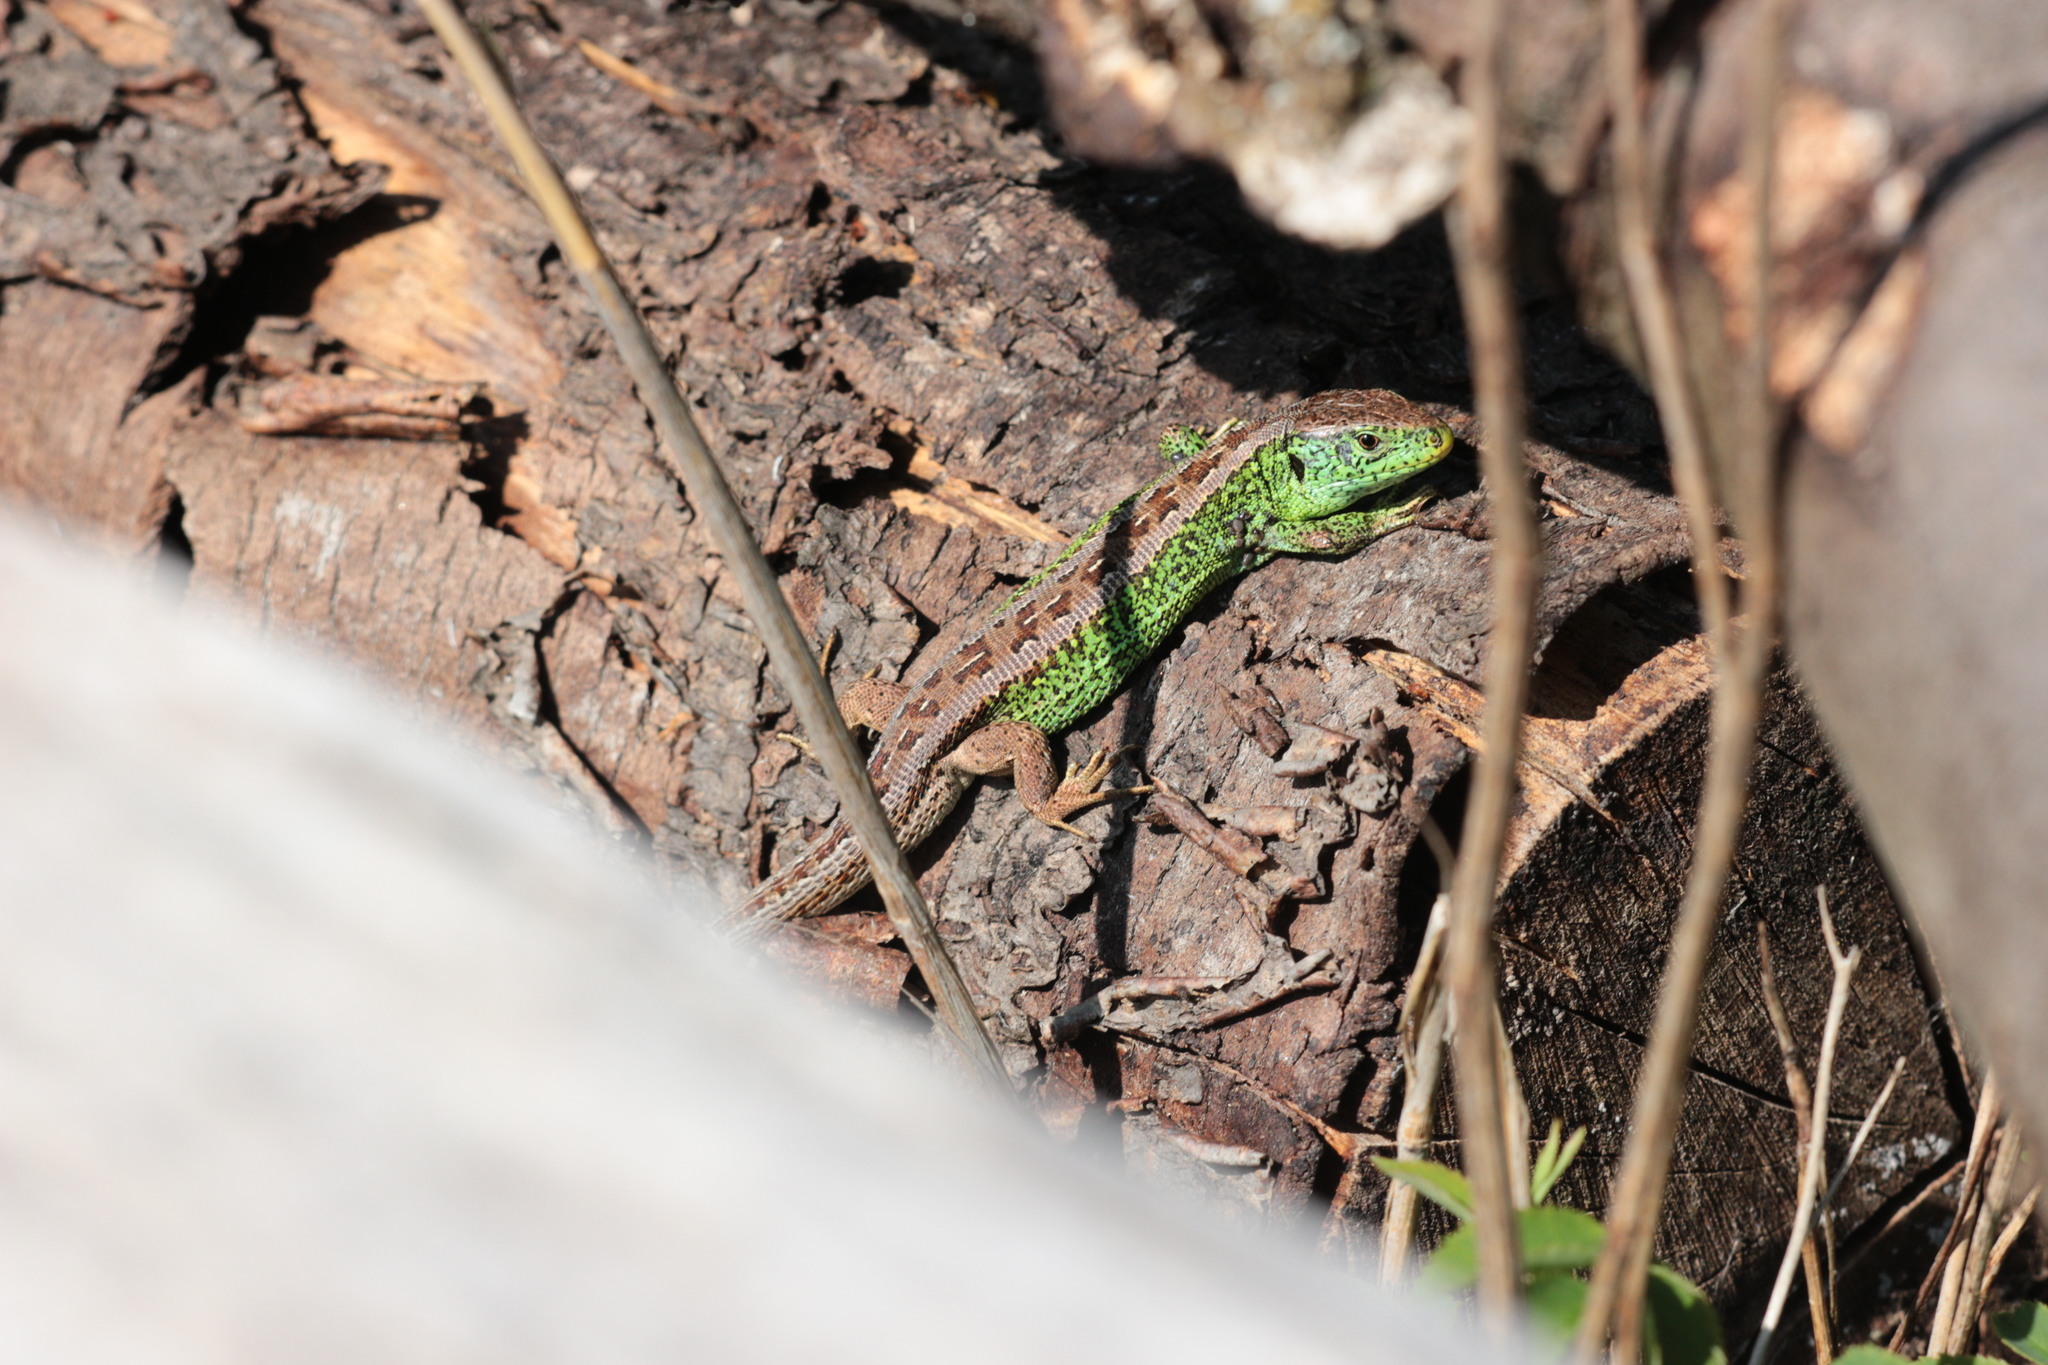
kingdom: Animalia
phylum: Chordata
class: Squamata
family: Lacertidae
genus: Lacerta
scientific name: Lacerta agilis
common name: Sand lizard
